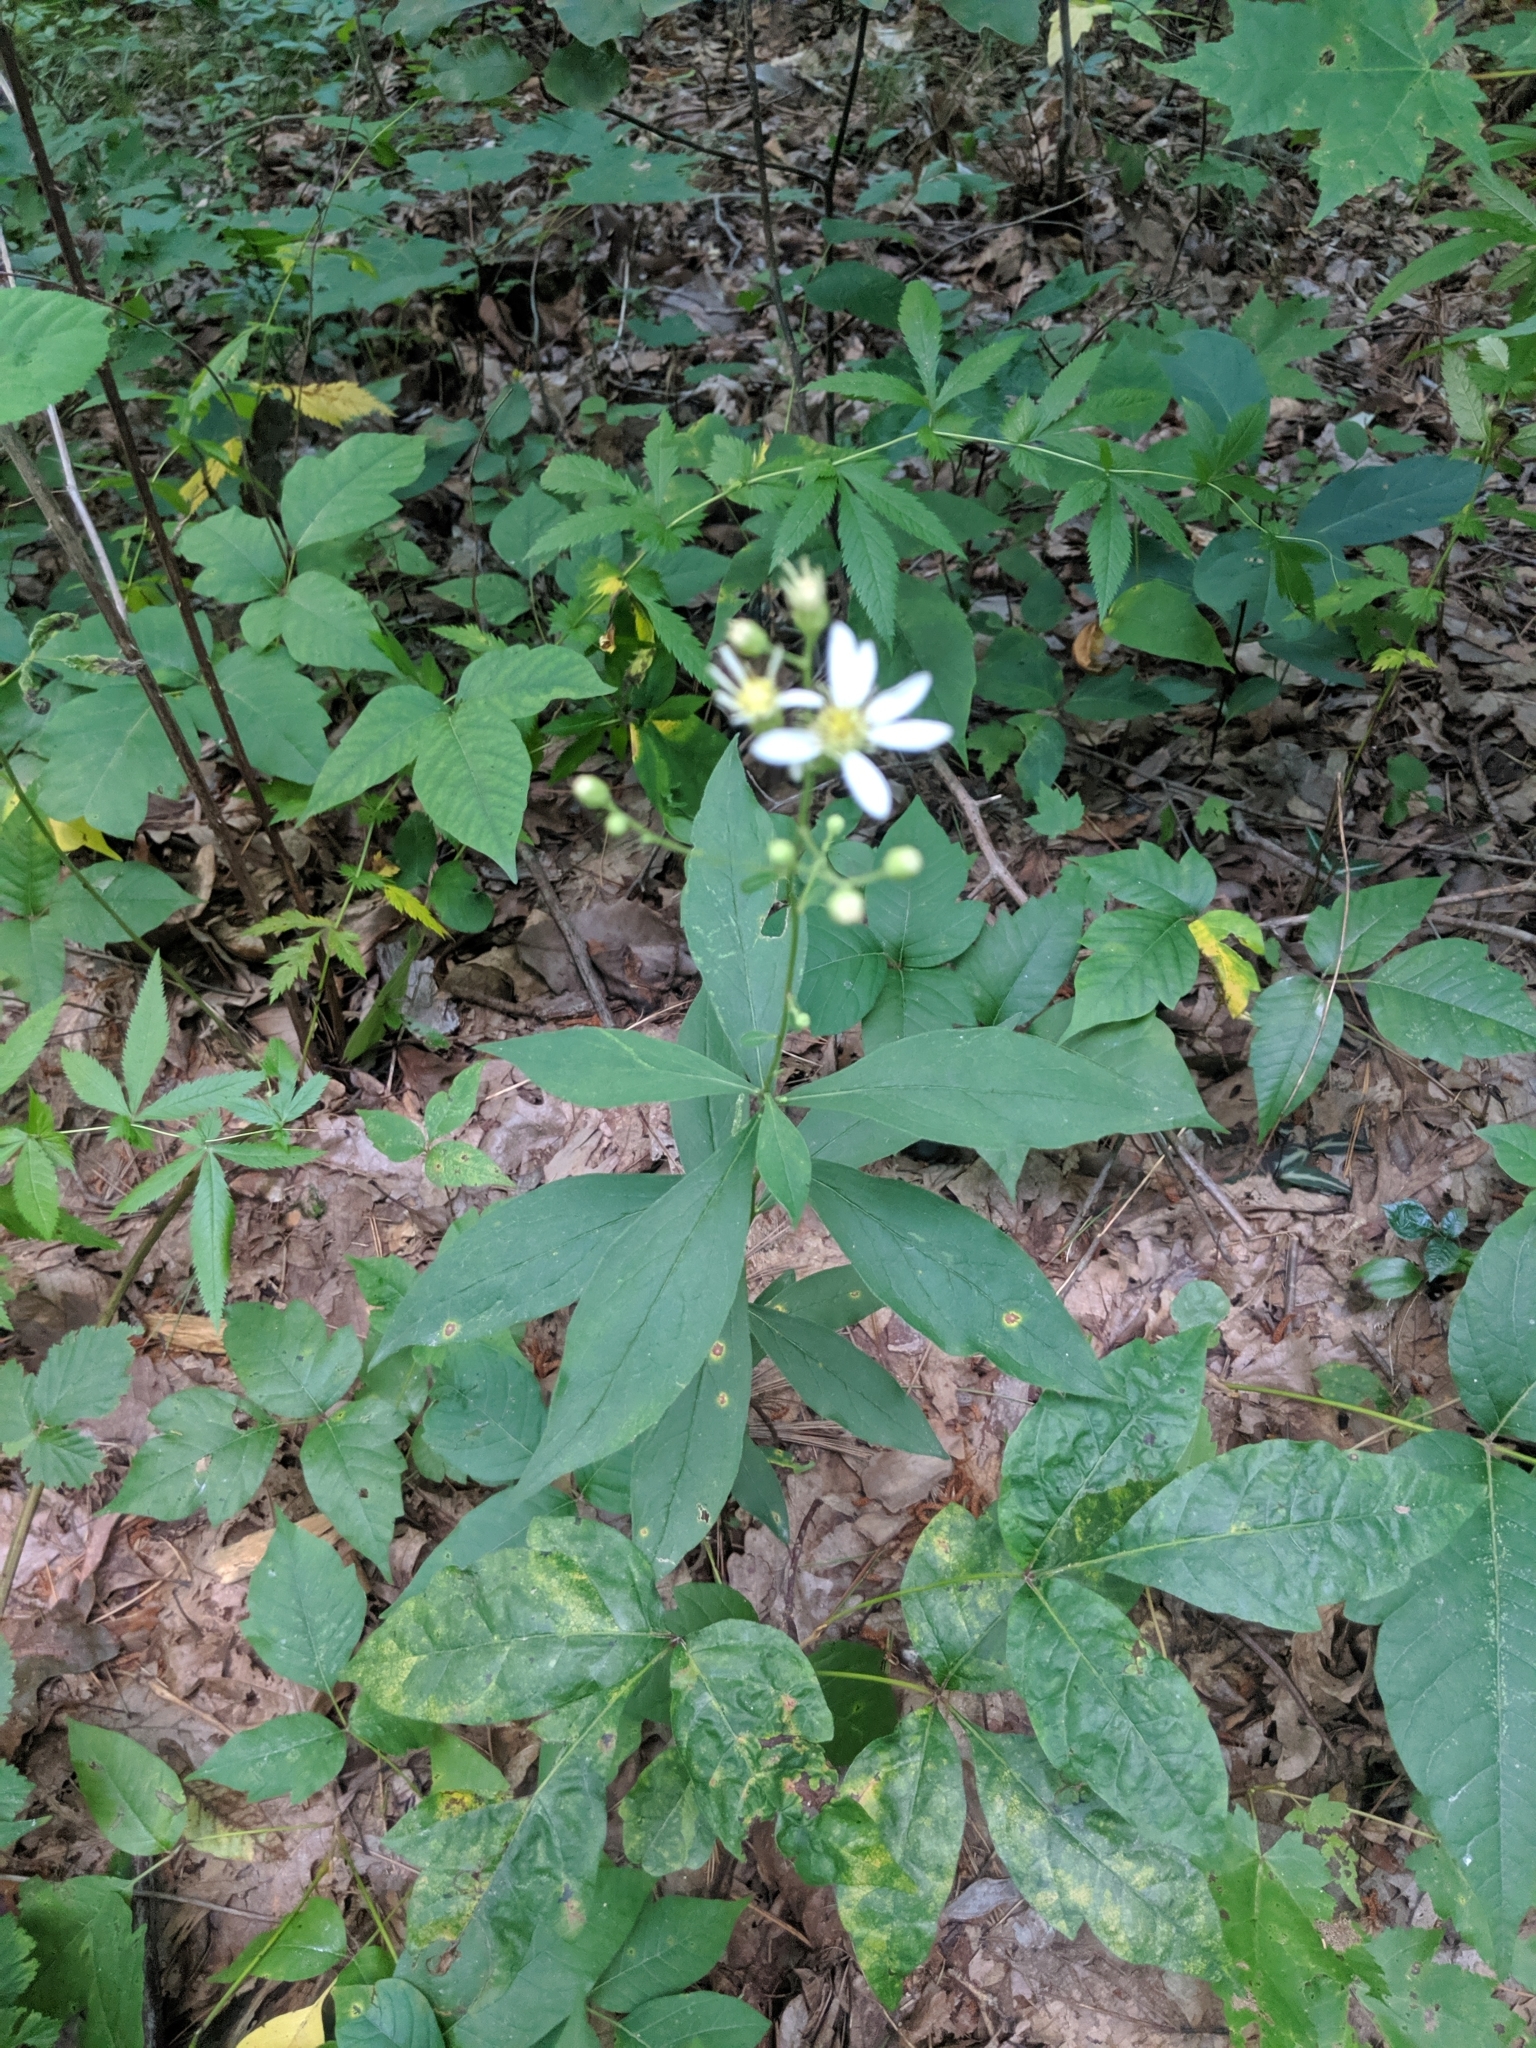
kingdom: Plantae
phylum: Tracheophyta
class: Magnoliopsida
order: Asterales
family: Asteraceae
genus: Doellingeria
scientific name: Doellingeria infirma
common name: Appalachian flat-top aster
